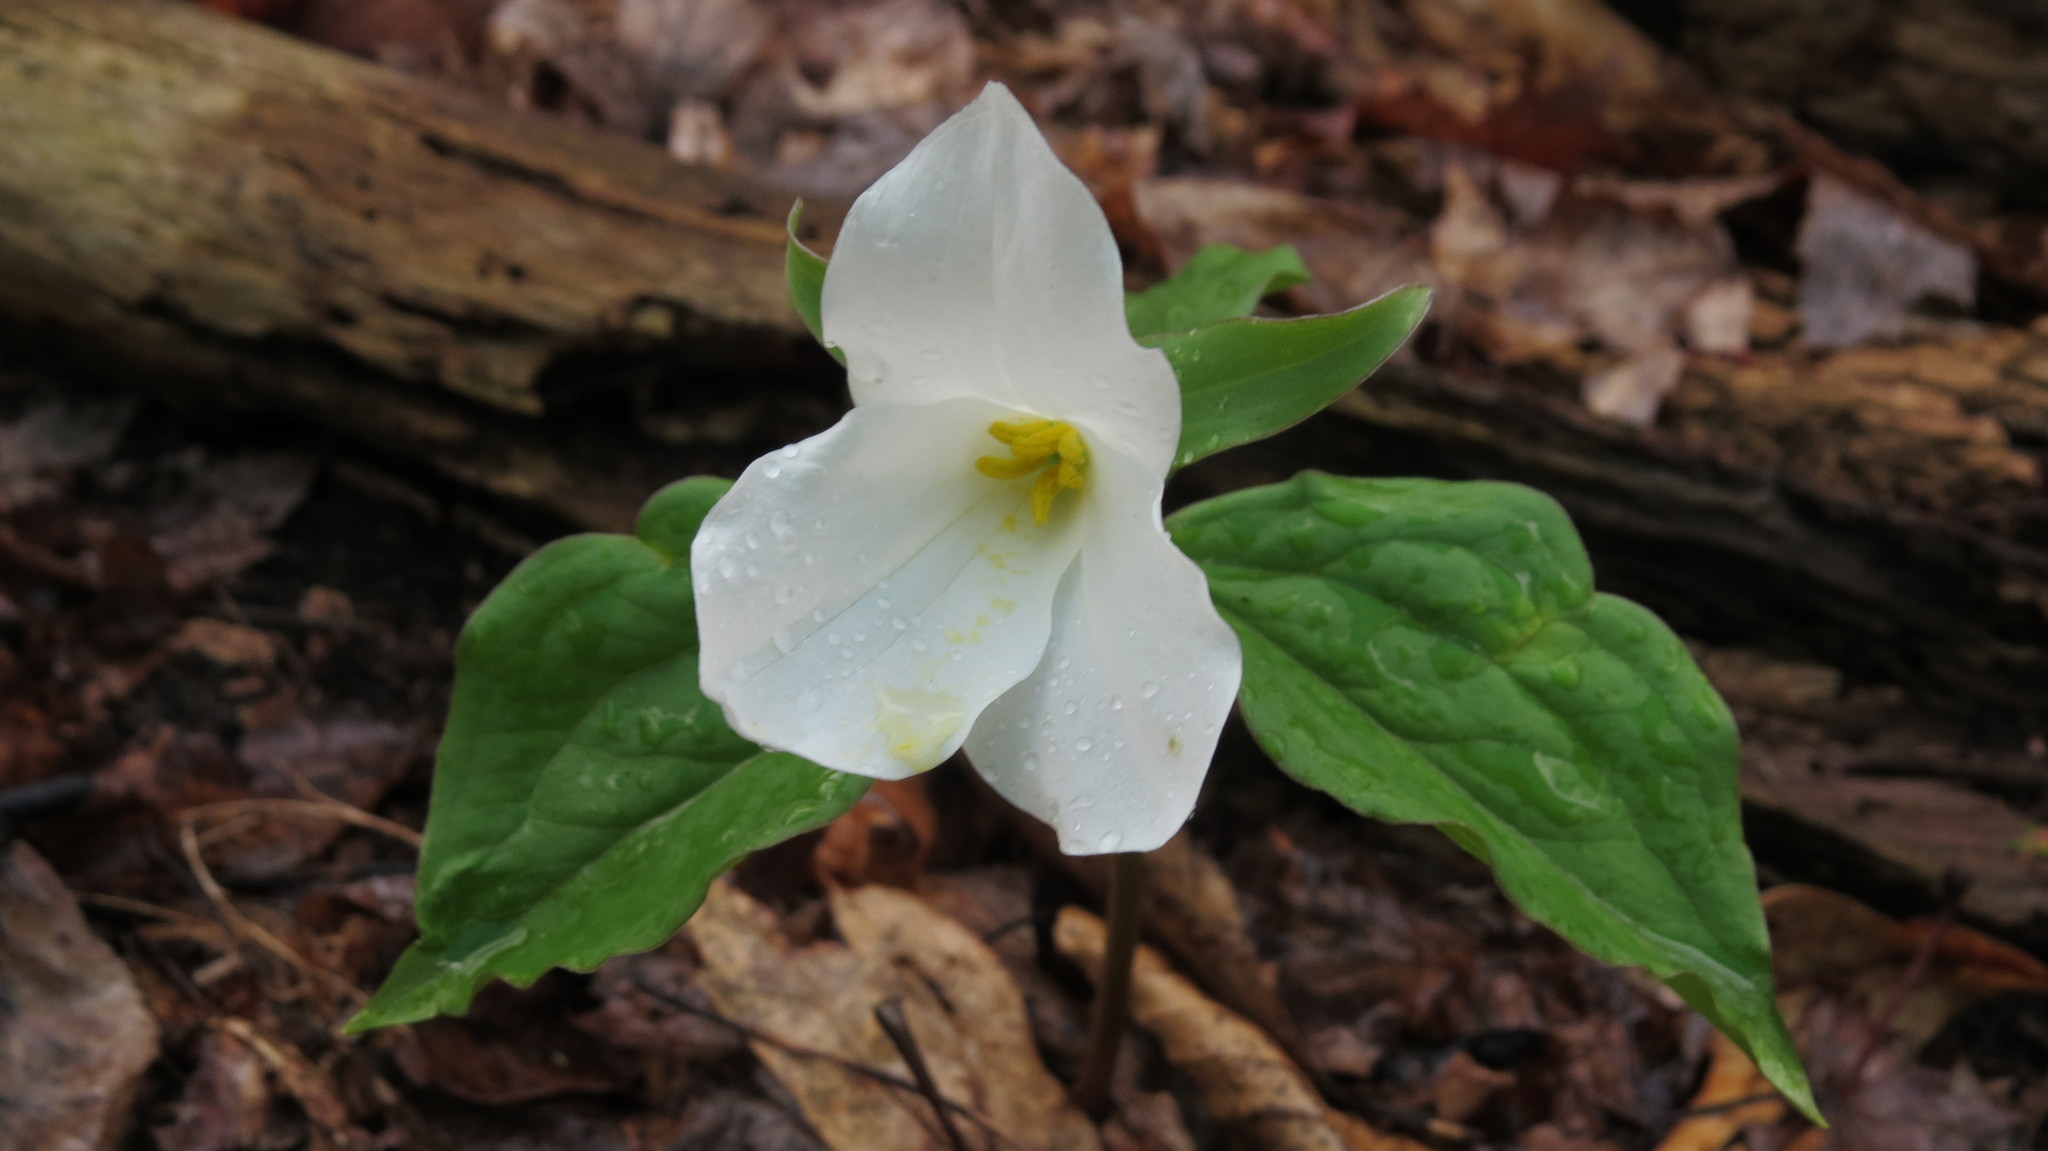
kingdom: Plantae
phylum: Tracheophyta
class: Liliopsida
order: Liliales
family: Melanthiaceae
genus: Trillium
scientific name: Trillium grandiflorum
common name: Great white trillium
